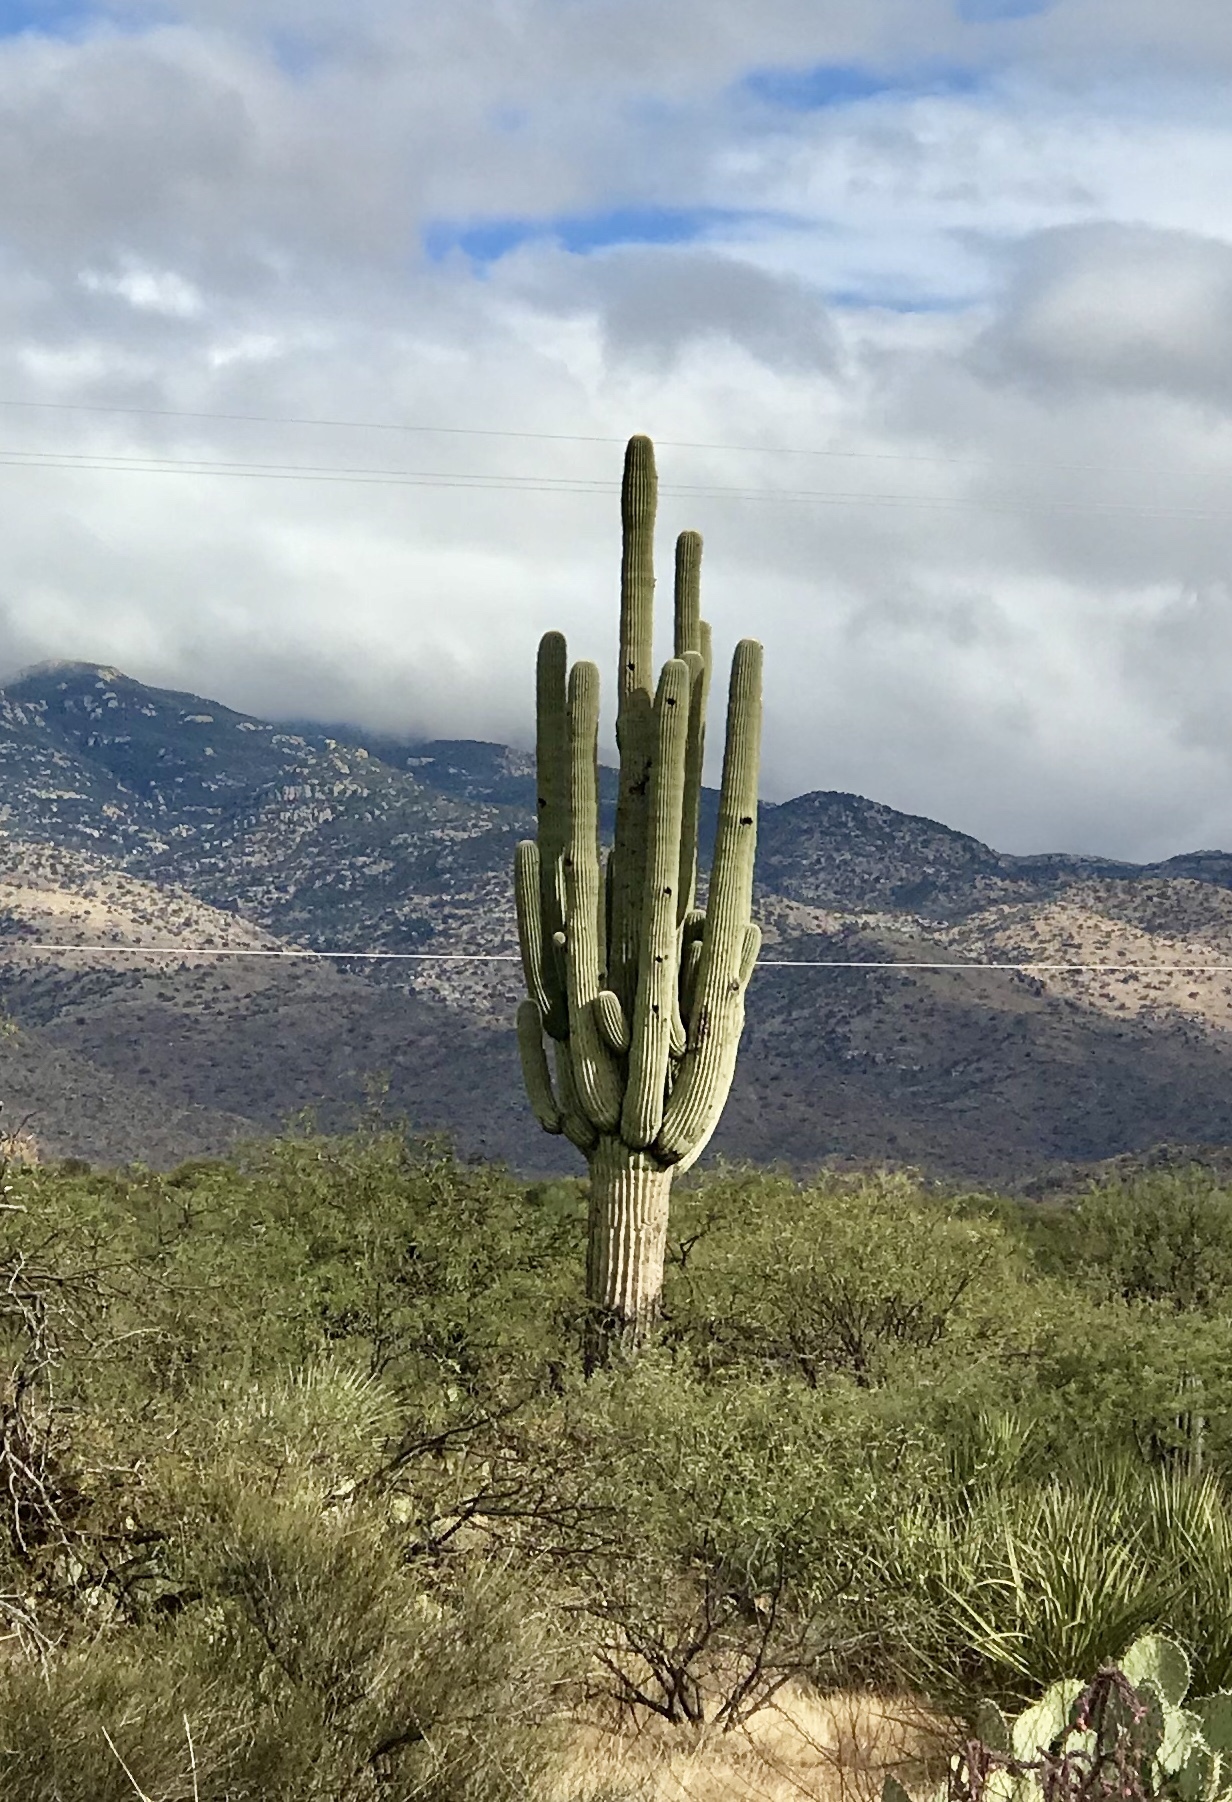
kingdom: Plantae
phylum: Tracheophyta
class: Magnoliopsida
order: Caryophyllales
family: Cactaceae
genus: Carnegiea
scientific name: Carnegiea gigantea
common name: Saguaro
